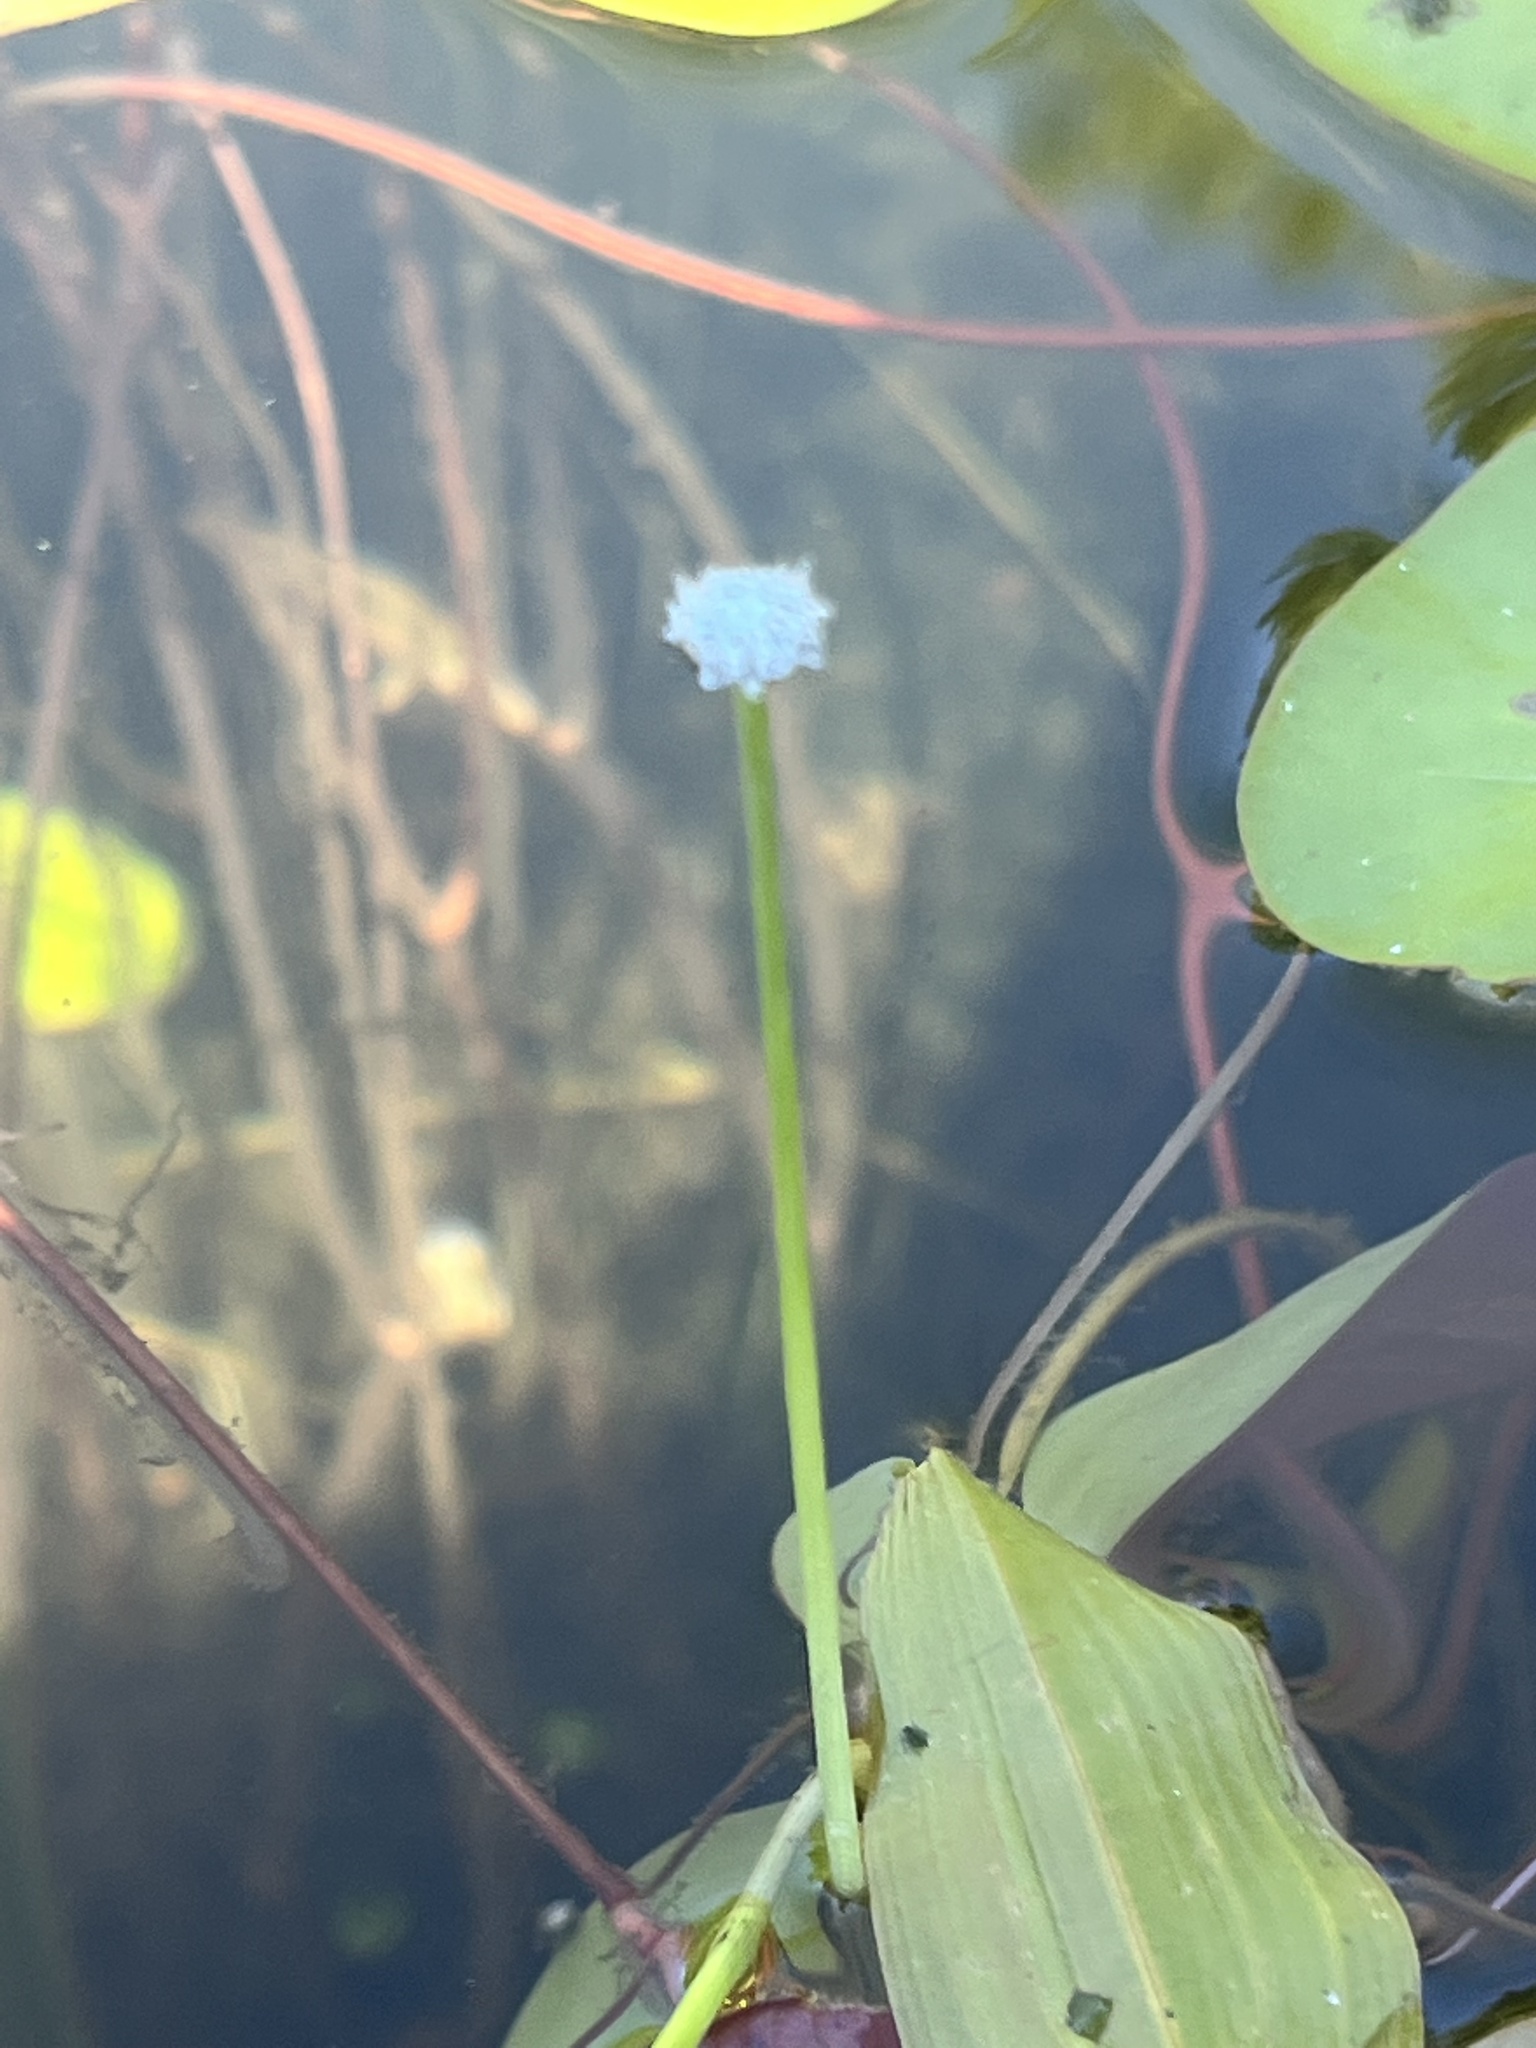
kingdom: Plantae
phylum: Tracheophyta
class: Liliopsida
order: Poales
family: Eriocaulaceae
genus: Eriocaulon
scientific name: Eriocaulon aquaticum
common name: Pipewort
